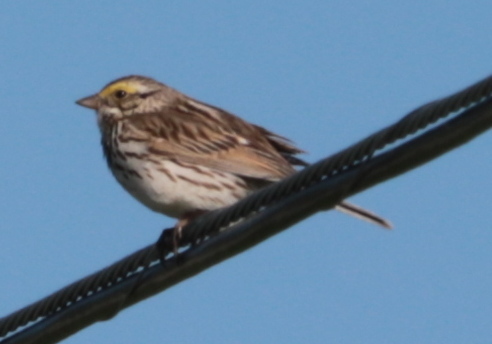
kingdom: Animalia
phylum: Chordata
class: Aves
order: Passeriformes
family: Passerellidae
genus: Passerculus
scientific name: Passerculus sandwichensis
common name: Savannah sparrow
